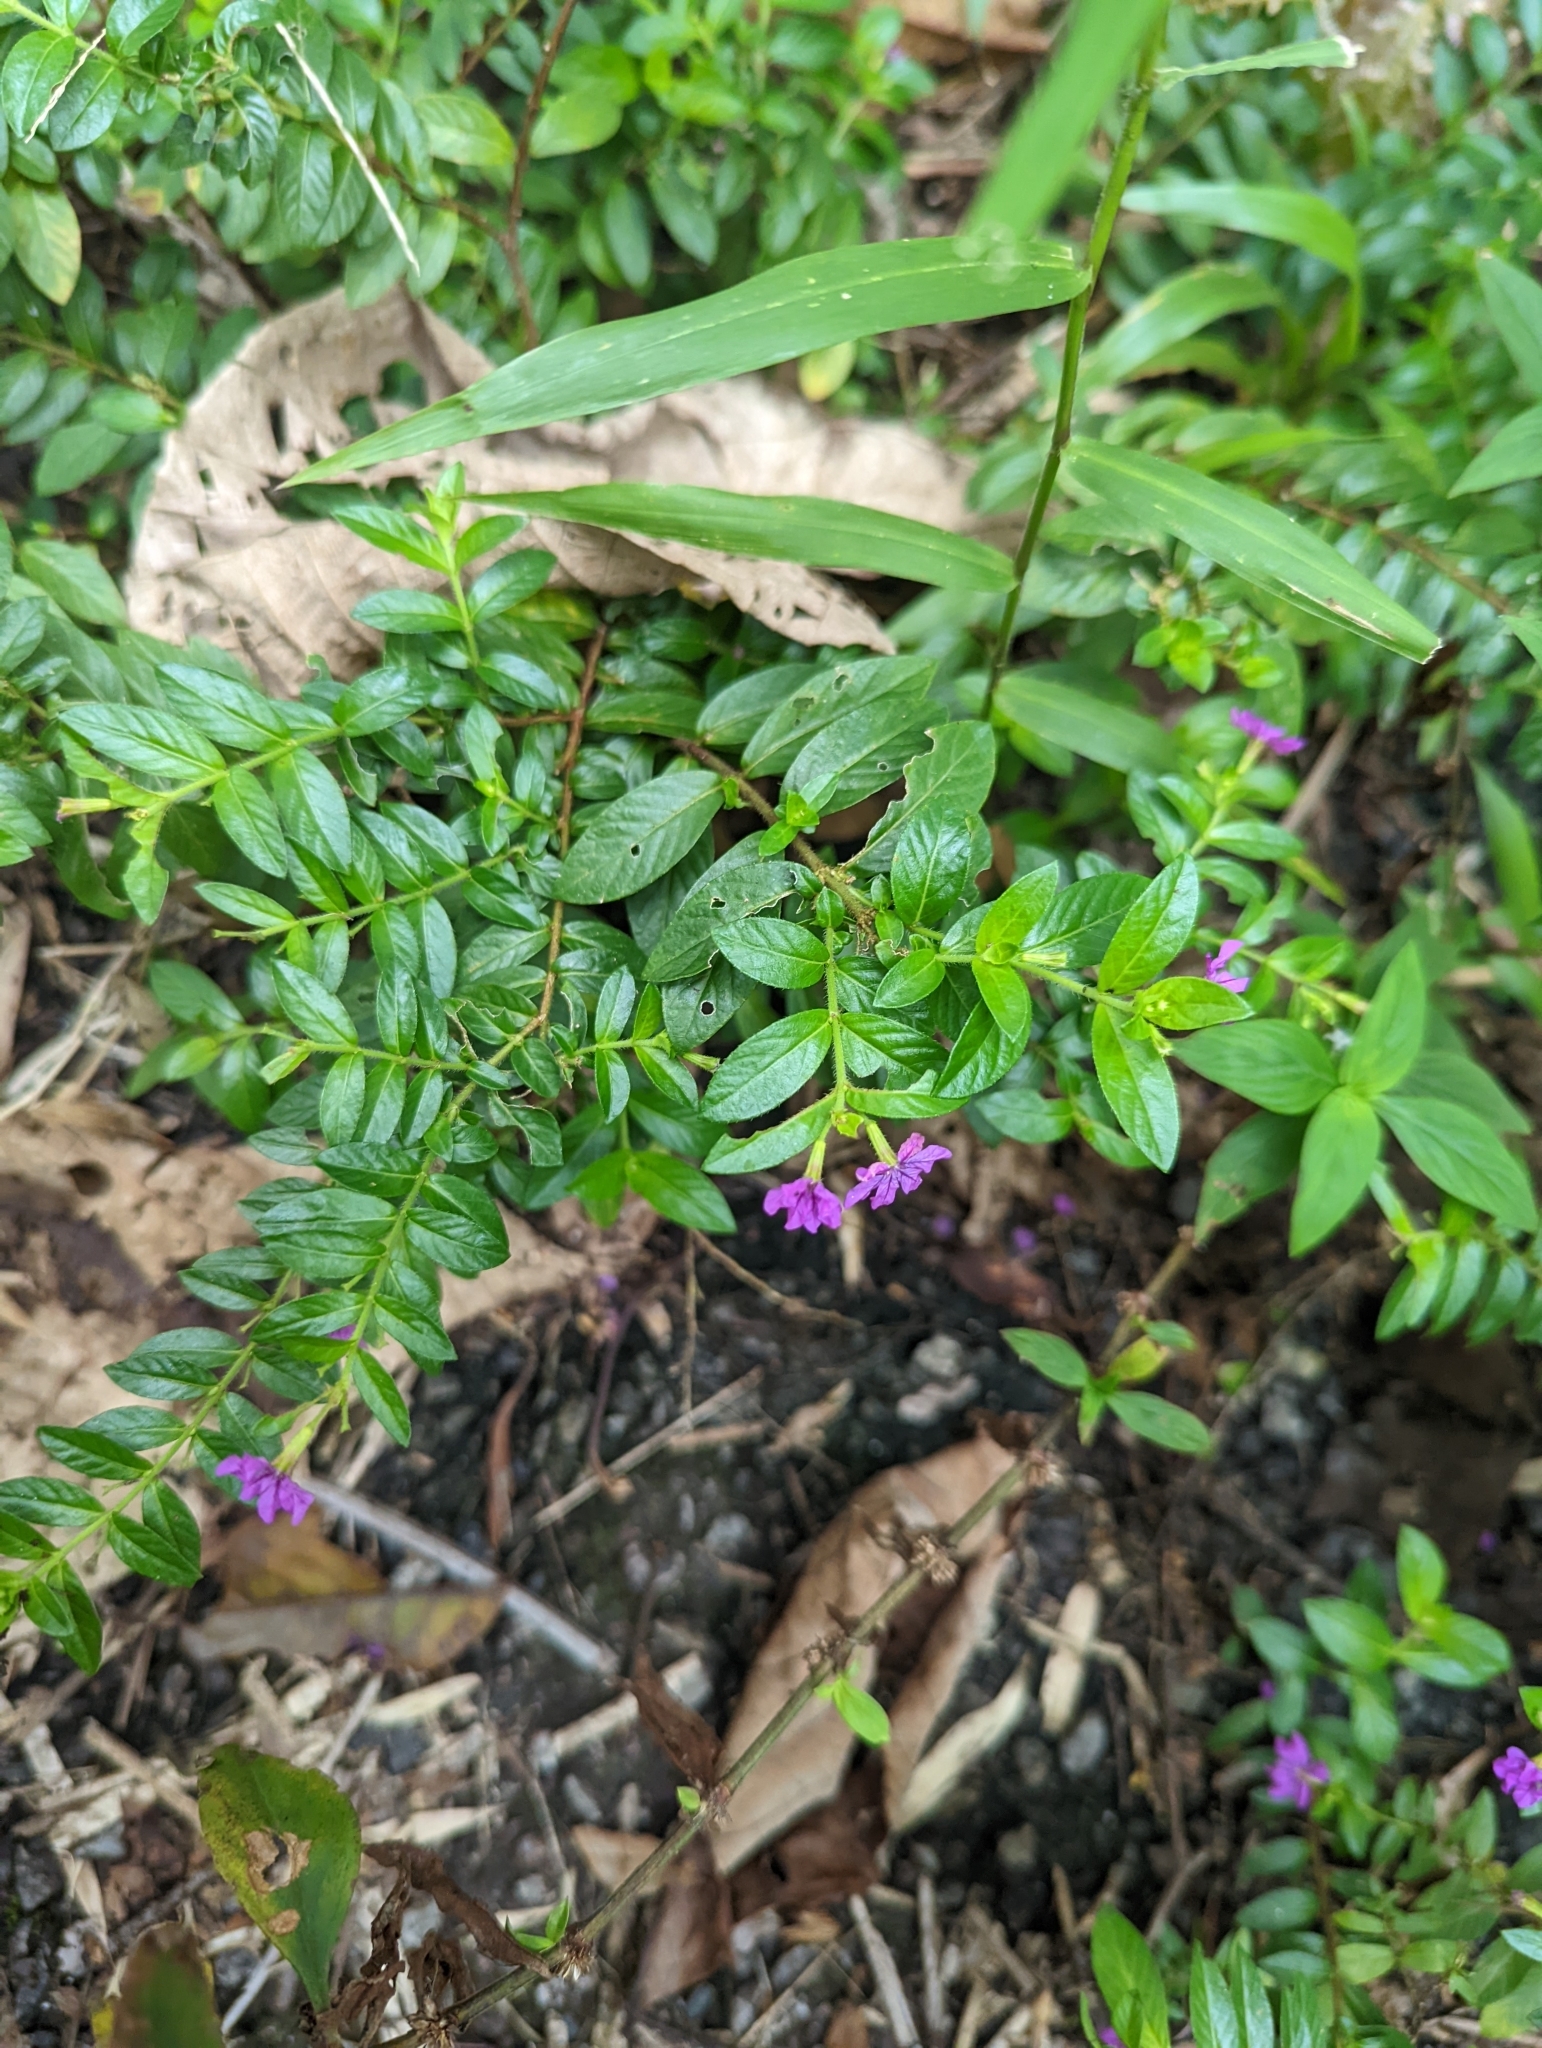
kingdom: Plantae
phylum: Tracheophyta
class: Magnoliopsida
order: Myrtales
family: Lythraceae
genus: Cuphea
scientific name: Cuphea hyssopifolia
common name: False heather
